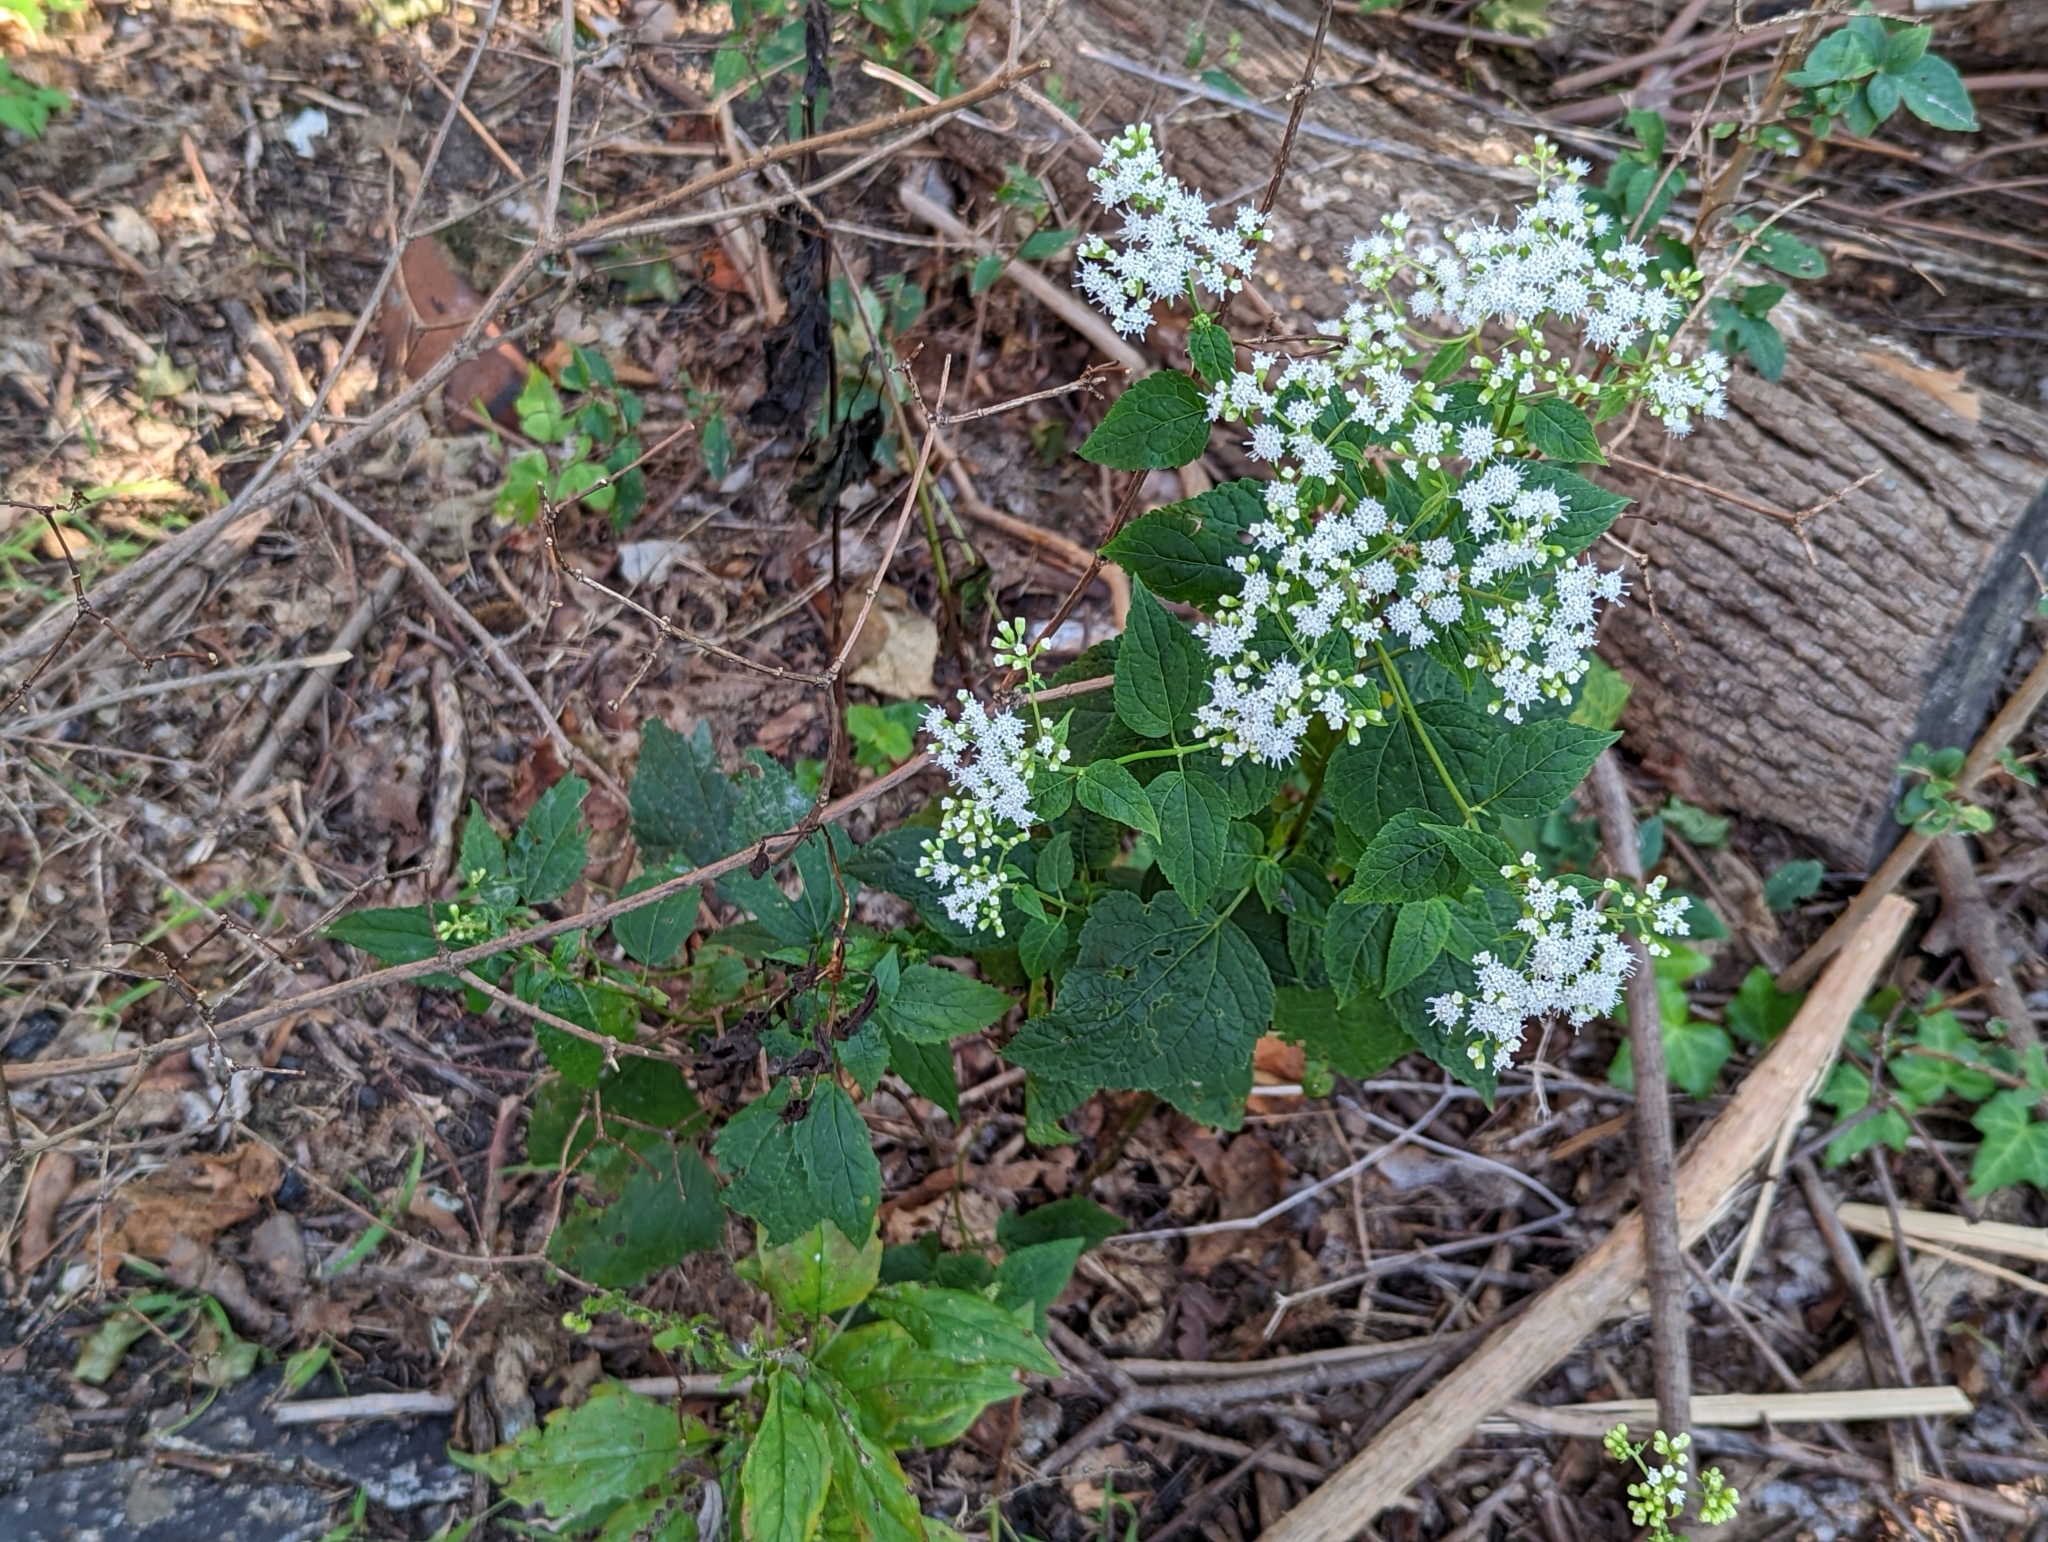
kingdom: Plantae
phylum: Tracheophyta
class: Magnoliopsida
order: Asterales
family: Asteraceae
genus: Ageratina
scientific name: Ageratina altissima
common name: White snakeroot
